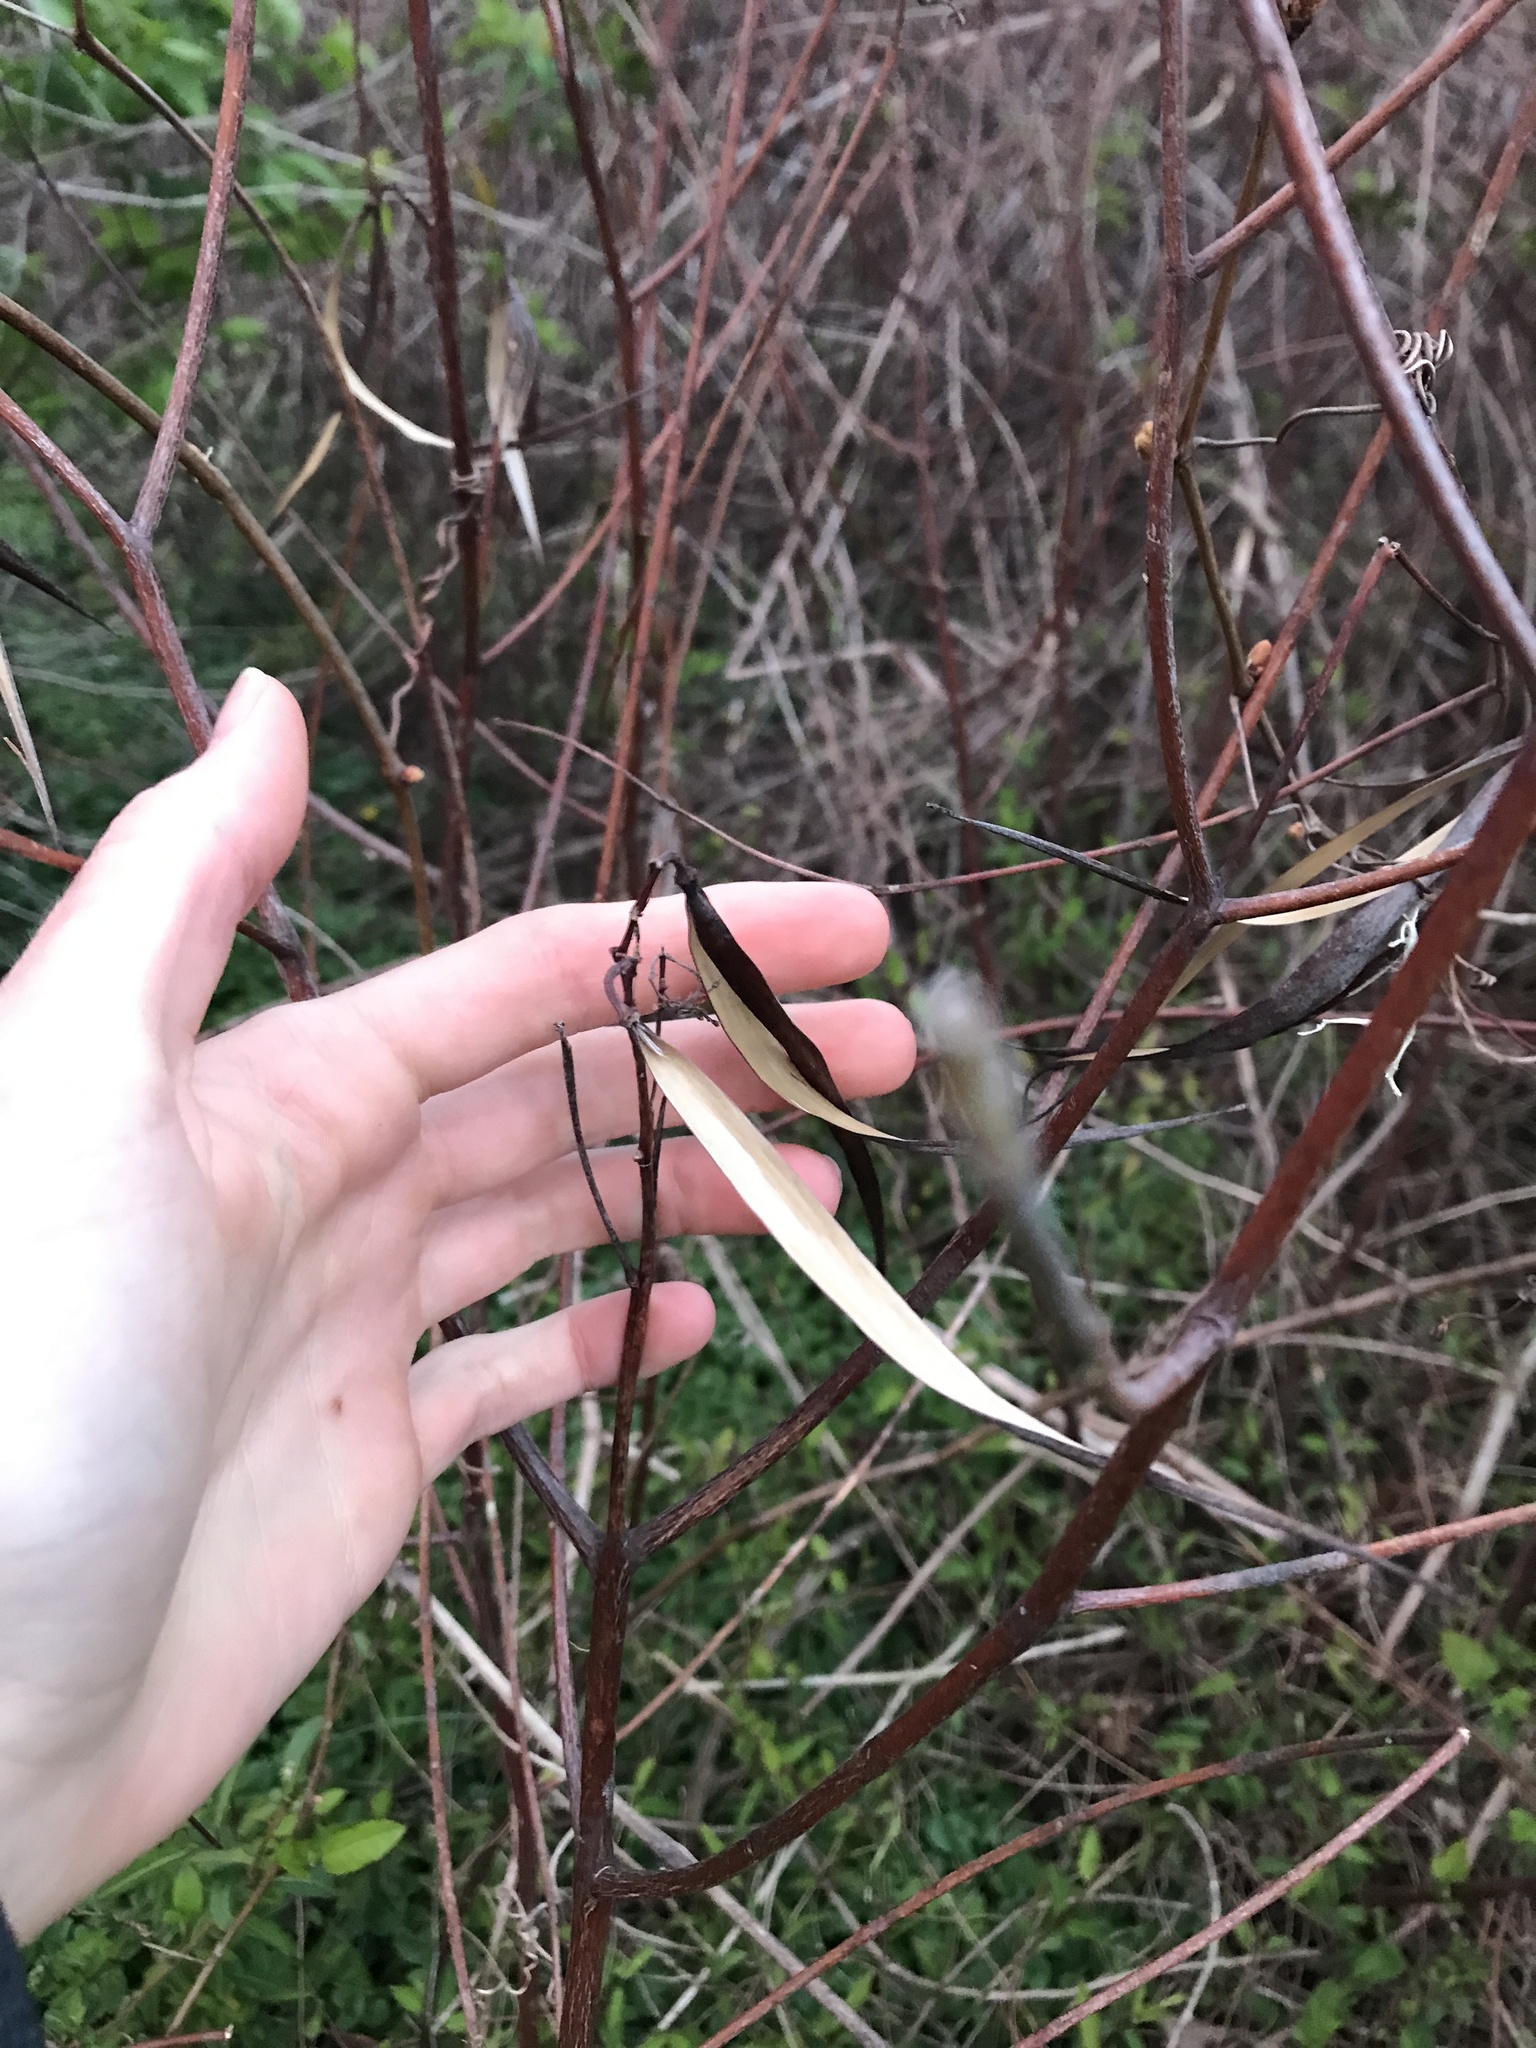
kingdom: Plantae
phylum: Tracheophyta
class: Magnoliopsida
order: Gentianales
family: Apocynaceae
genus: Apocynum
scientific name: Apocynum cannabinum
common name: Hemp dogbane
